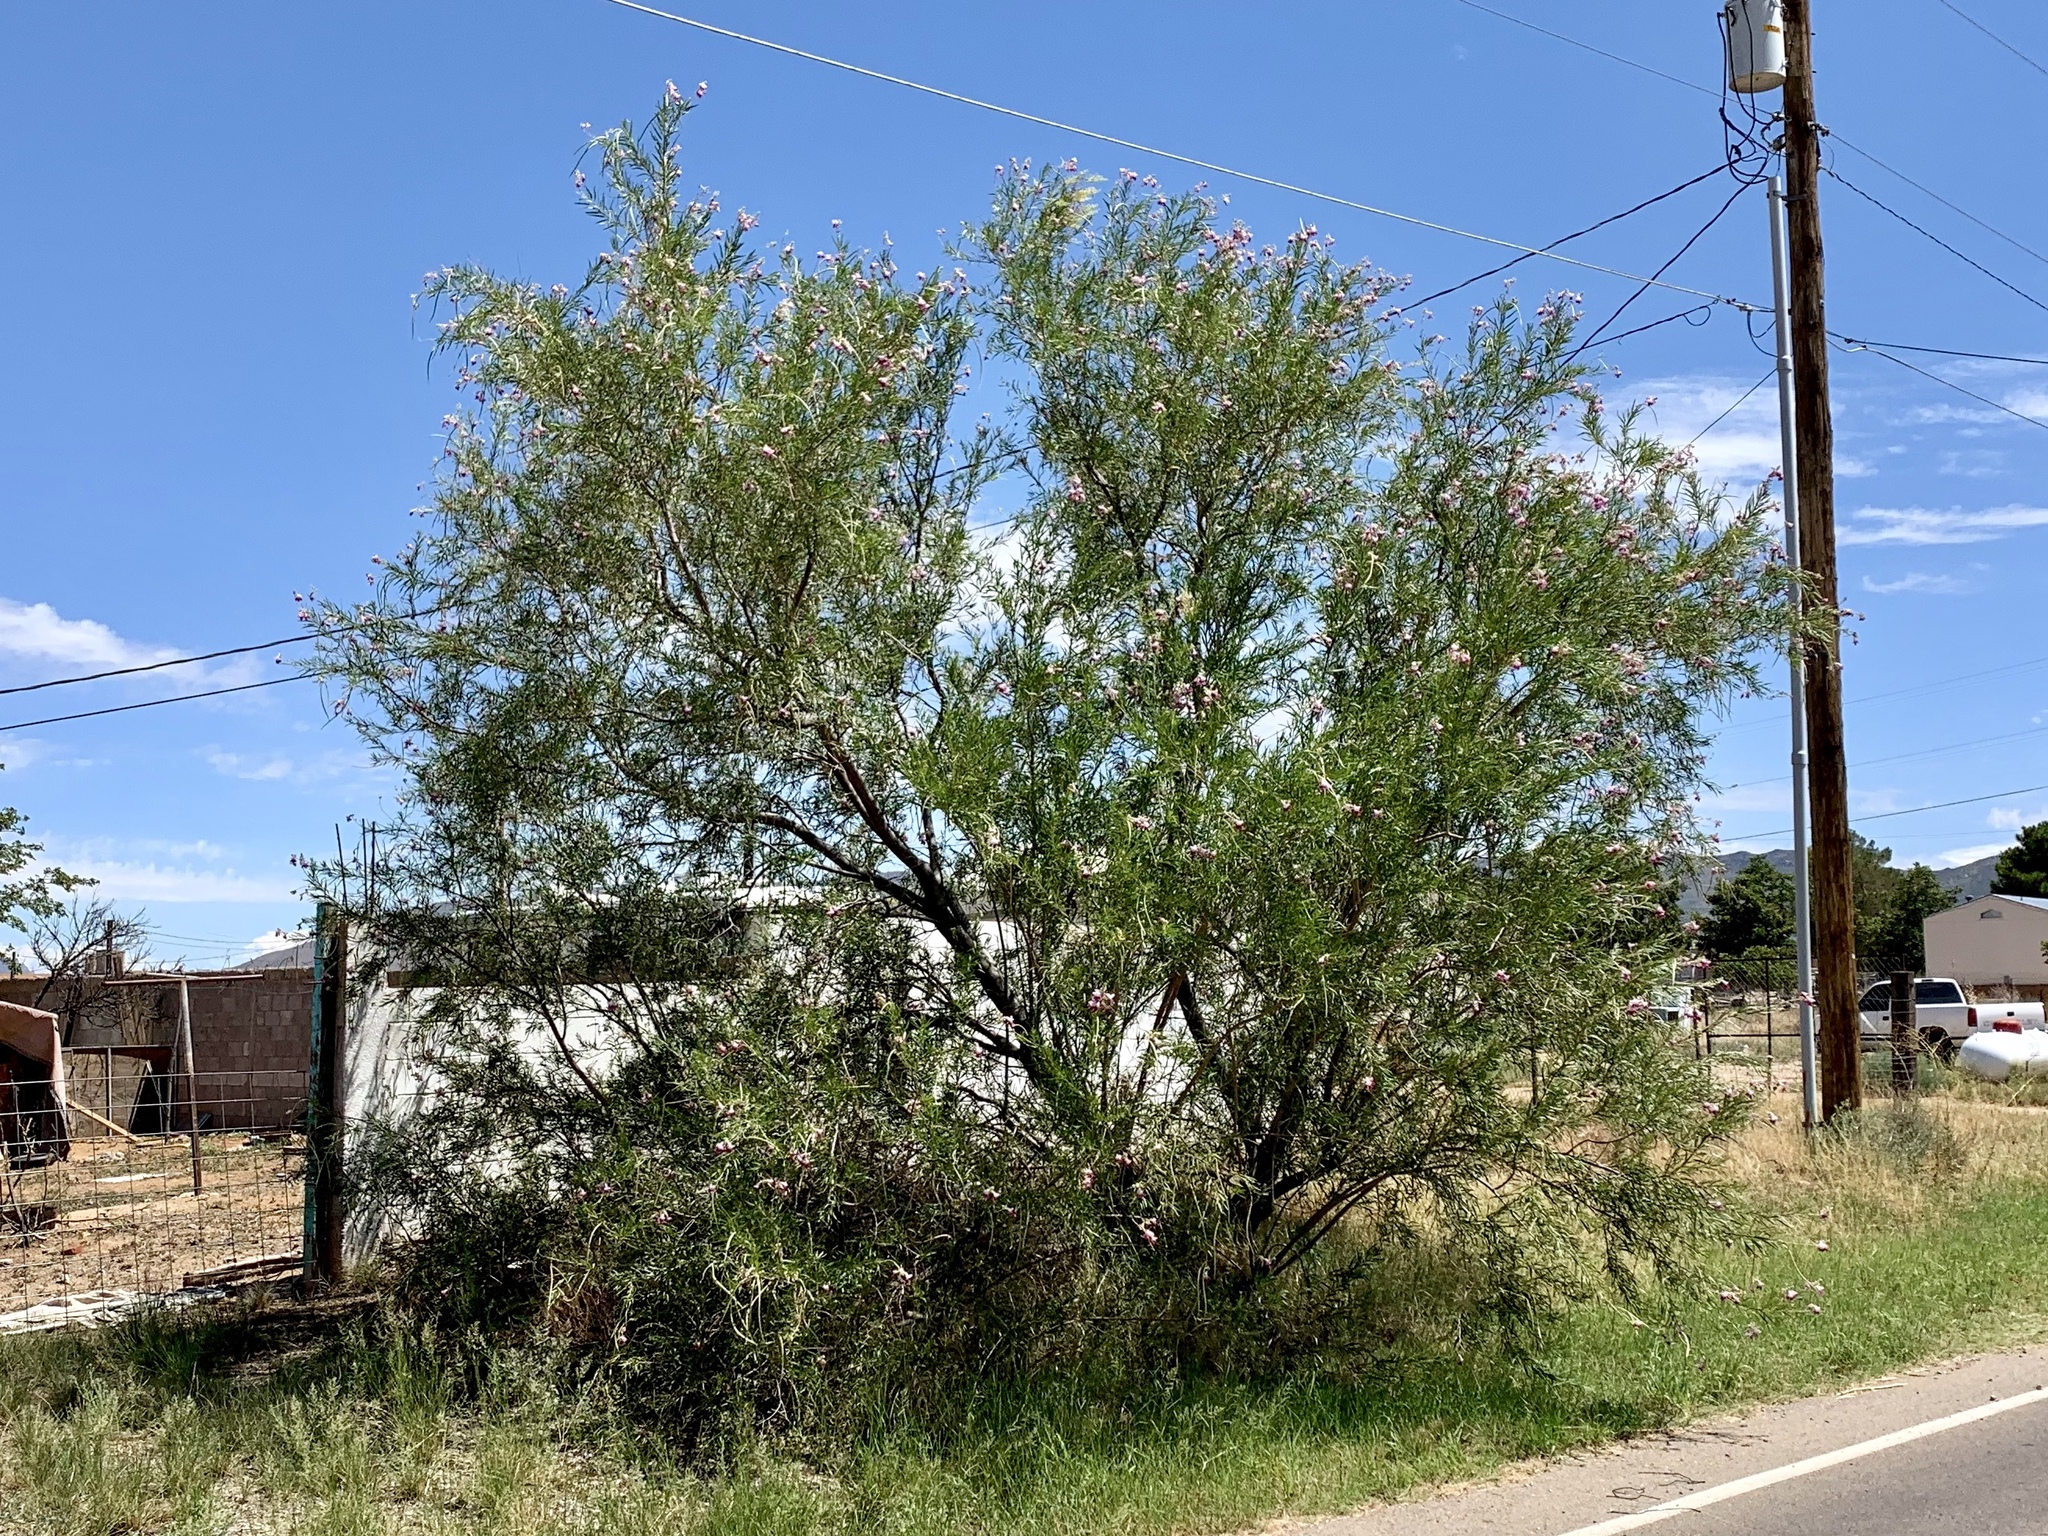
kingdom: Plantae
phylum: Tracheophyta
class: Magnoliopsida
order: Lamiales
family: Bignoniaceae
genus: Chilopsis
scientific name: Chilopsis linearis
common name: Desert-willow
